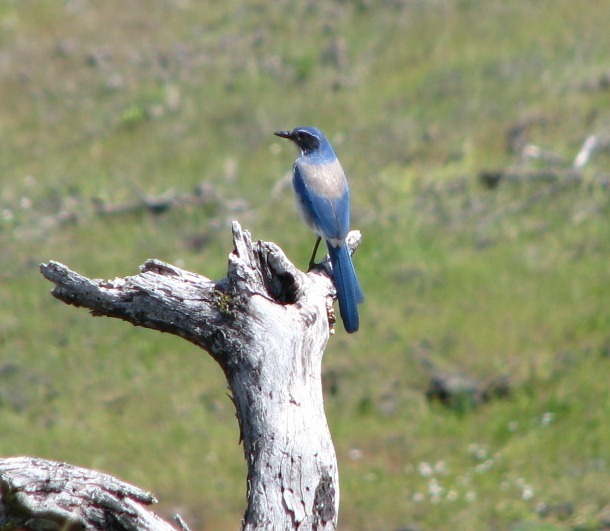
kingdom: Animalia
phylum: Chordata
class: Aves
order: Passeriformes
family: Corvidae
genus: Aphelocoma
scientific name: Aphelocoma californica
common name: California scrub-jay
